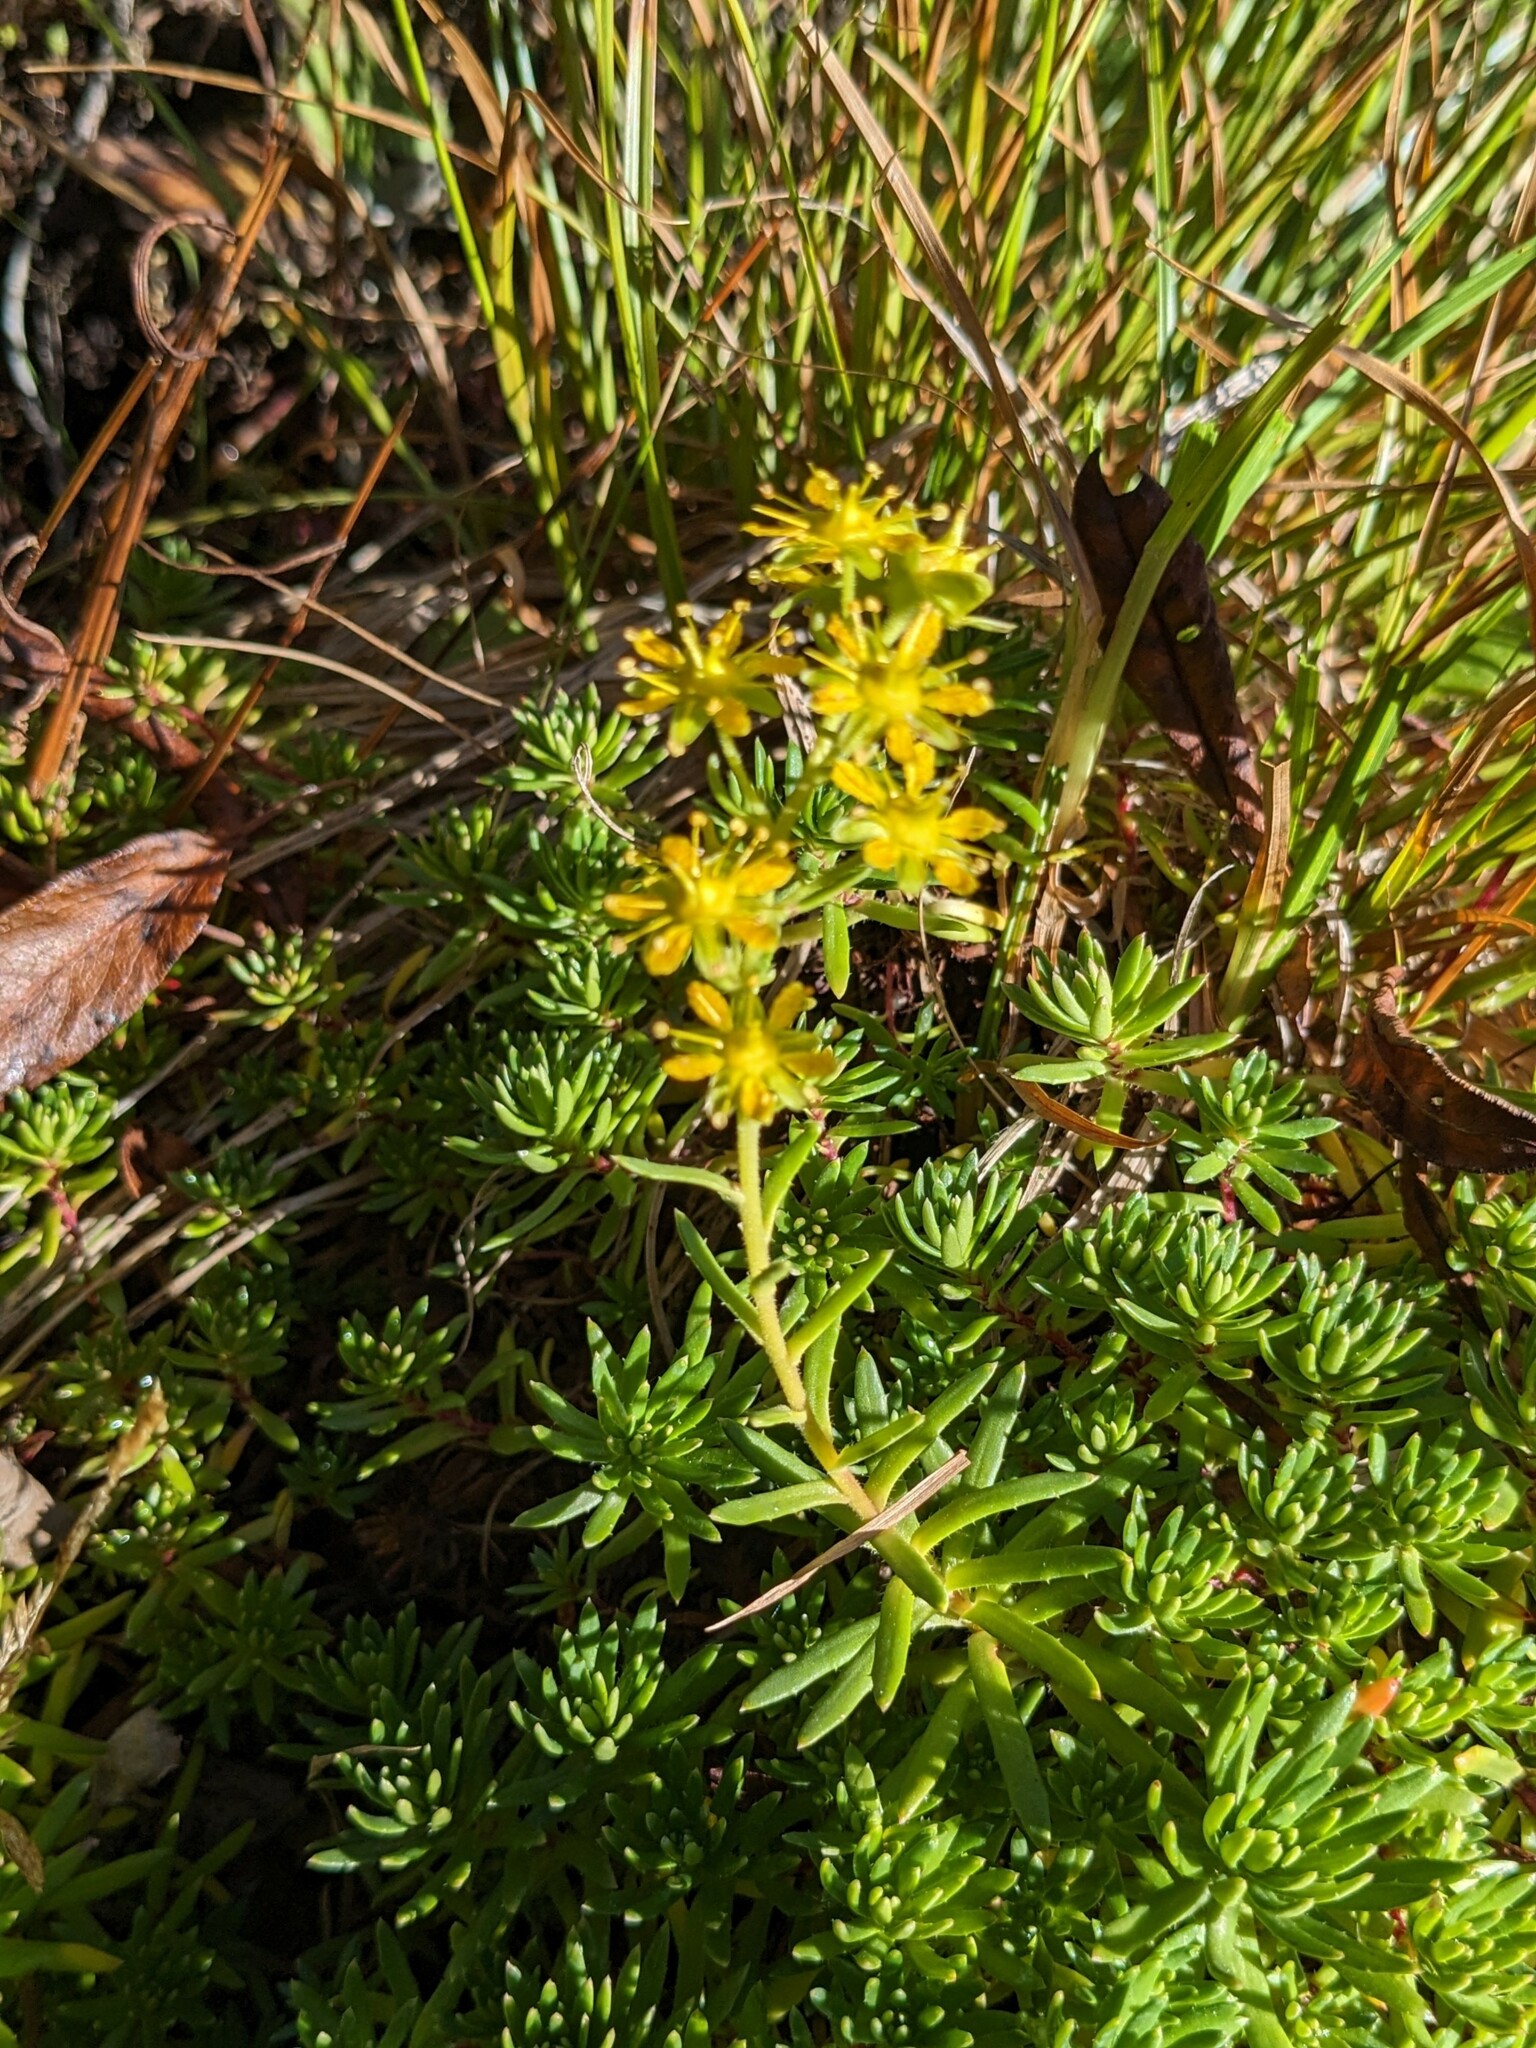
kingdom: Plantae
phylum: Tracheophyta
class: Magnoliopsida
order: Saxifragales
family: Saxifragaceae
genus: Saxifraga
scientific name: Saxifraga aizoides
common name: Yellow mountain saxifrage
